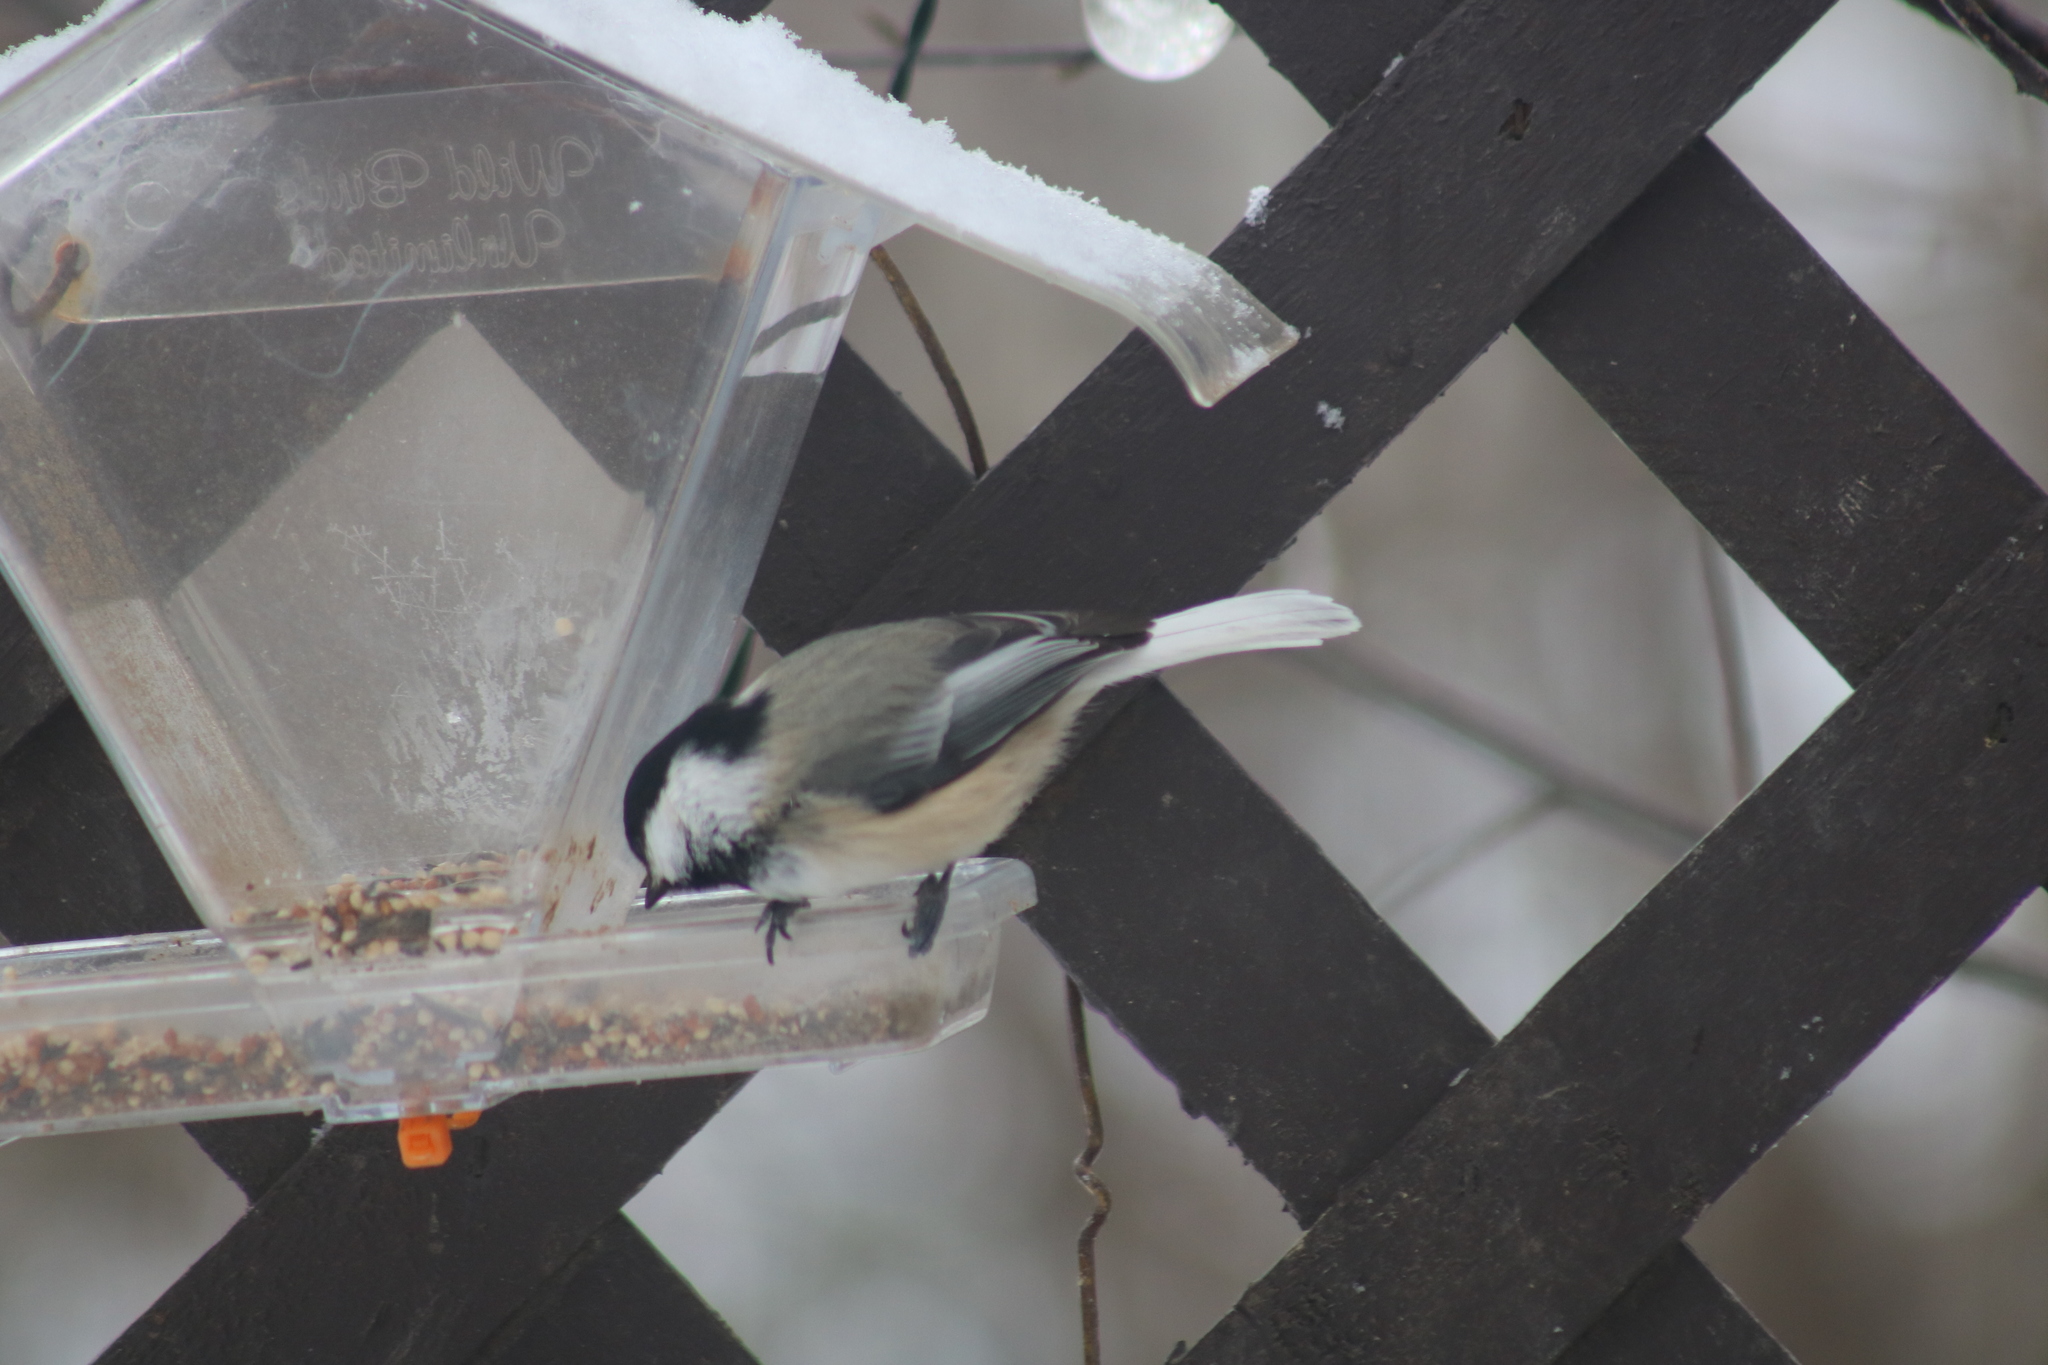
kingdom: Animalia
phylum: Chordata
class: Aves
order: Passeriformes
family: Paridae
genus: Poecile
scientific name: Poecile atricapillus
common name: Black-capped chickadee
